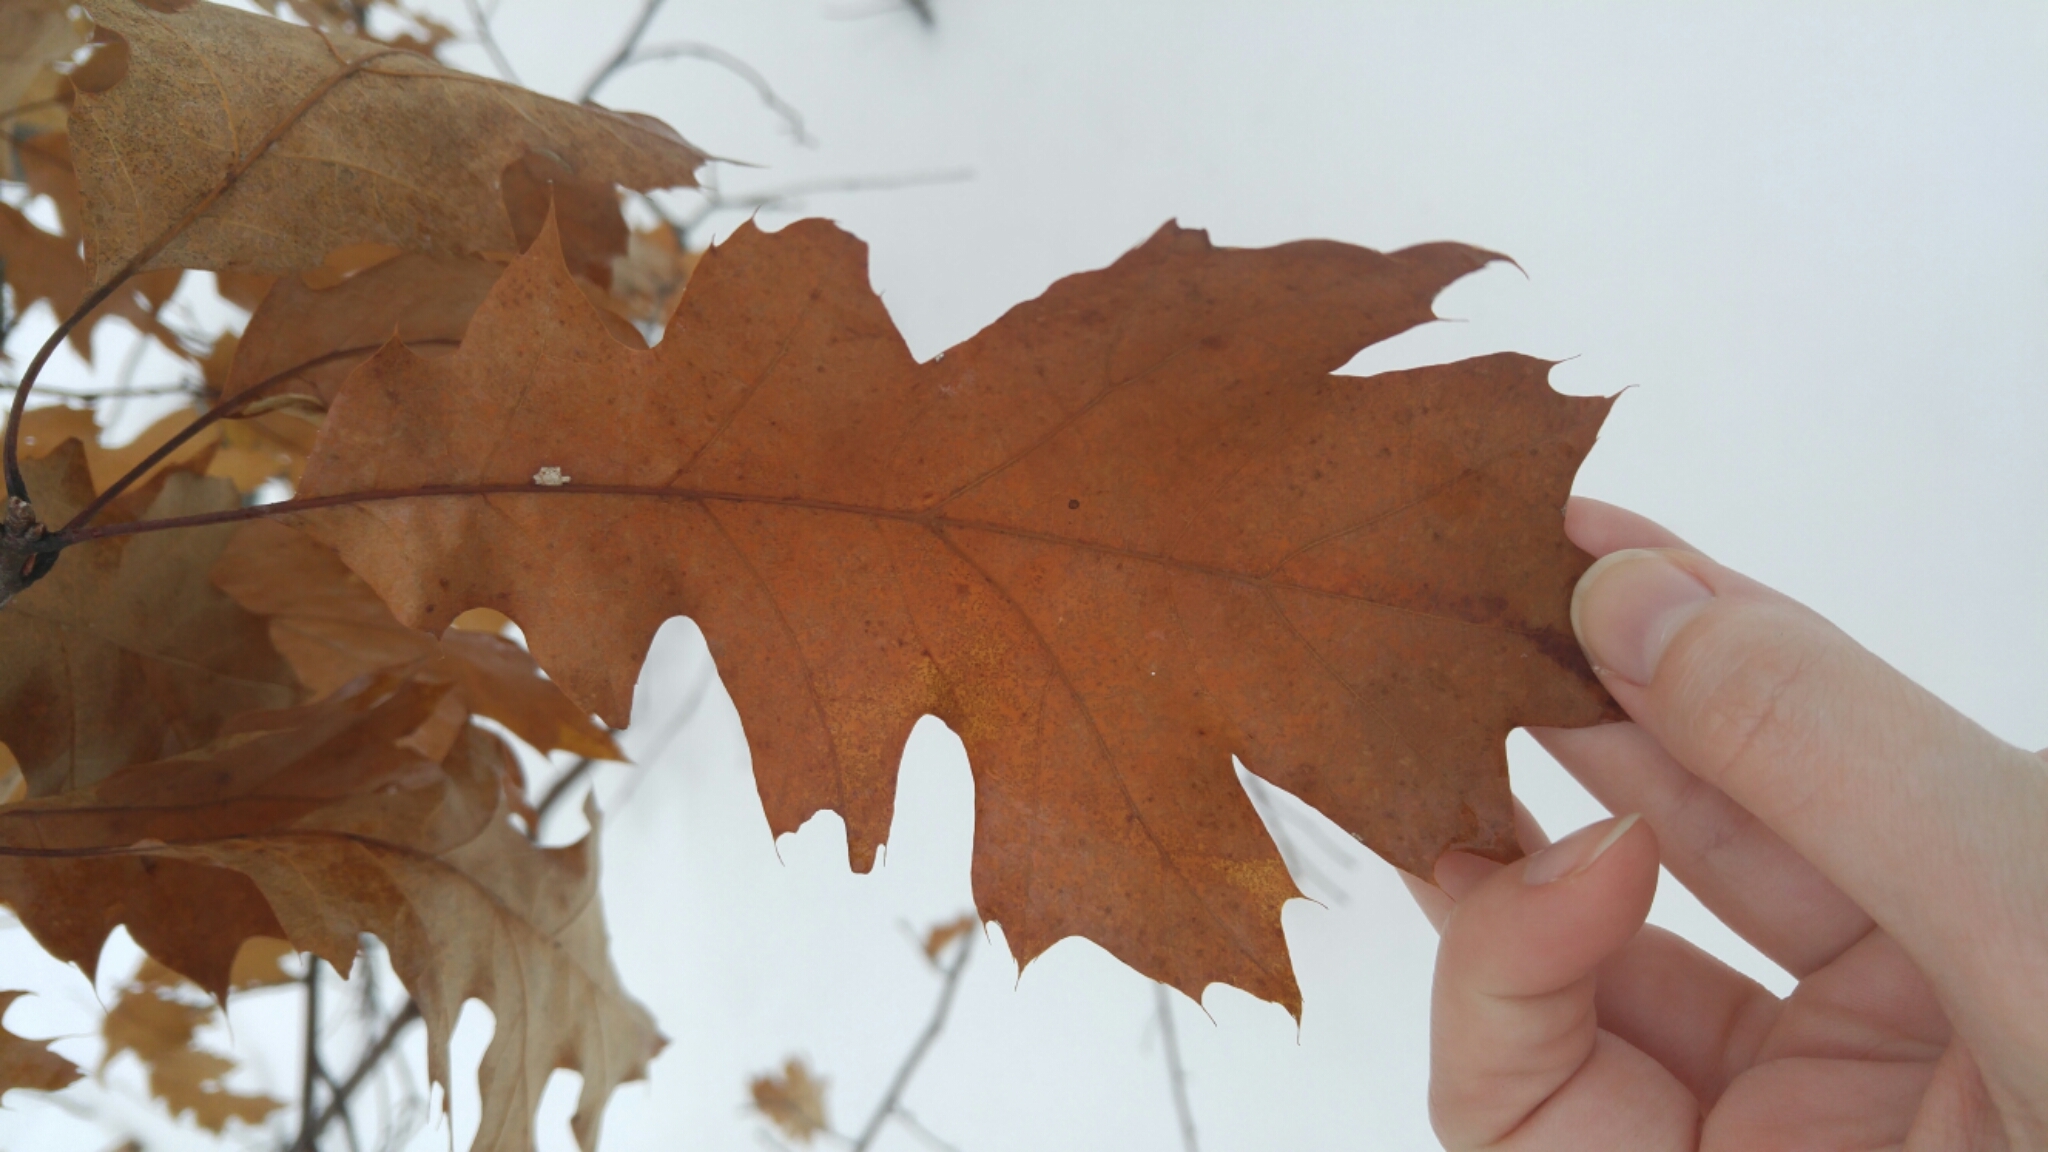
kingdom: Plantae
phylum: Tracheophyta
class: Magnoliopsida
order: Fagales
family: Fagaceae
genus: Quercus
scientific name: Quercus rubra
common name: Red oak
